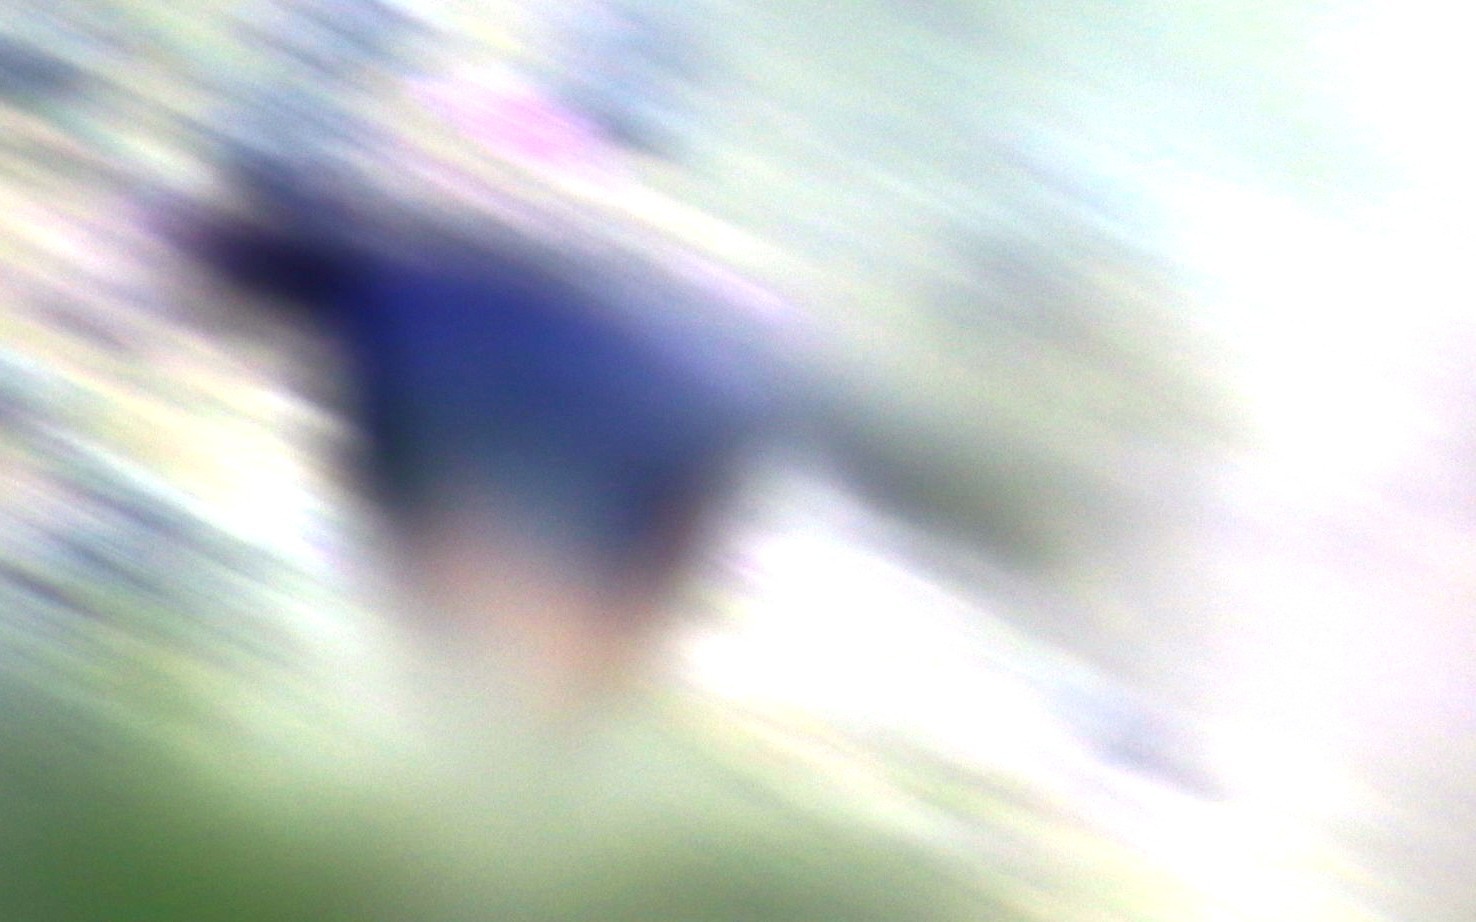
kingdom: Animalia
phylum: Chordata
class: Aves
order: Passeriformes
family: Sturnidae
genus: Onychognathus
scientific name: Onychognathus morio
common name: Red-winged starling
